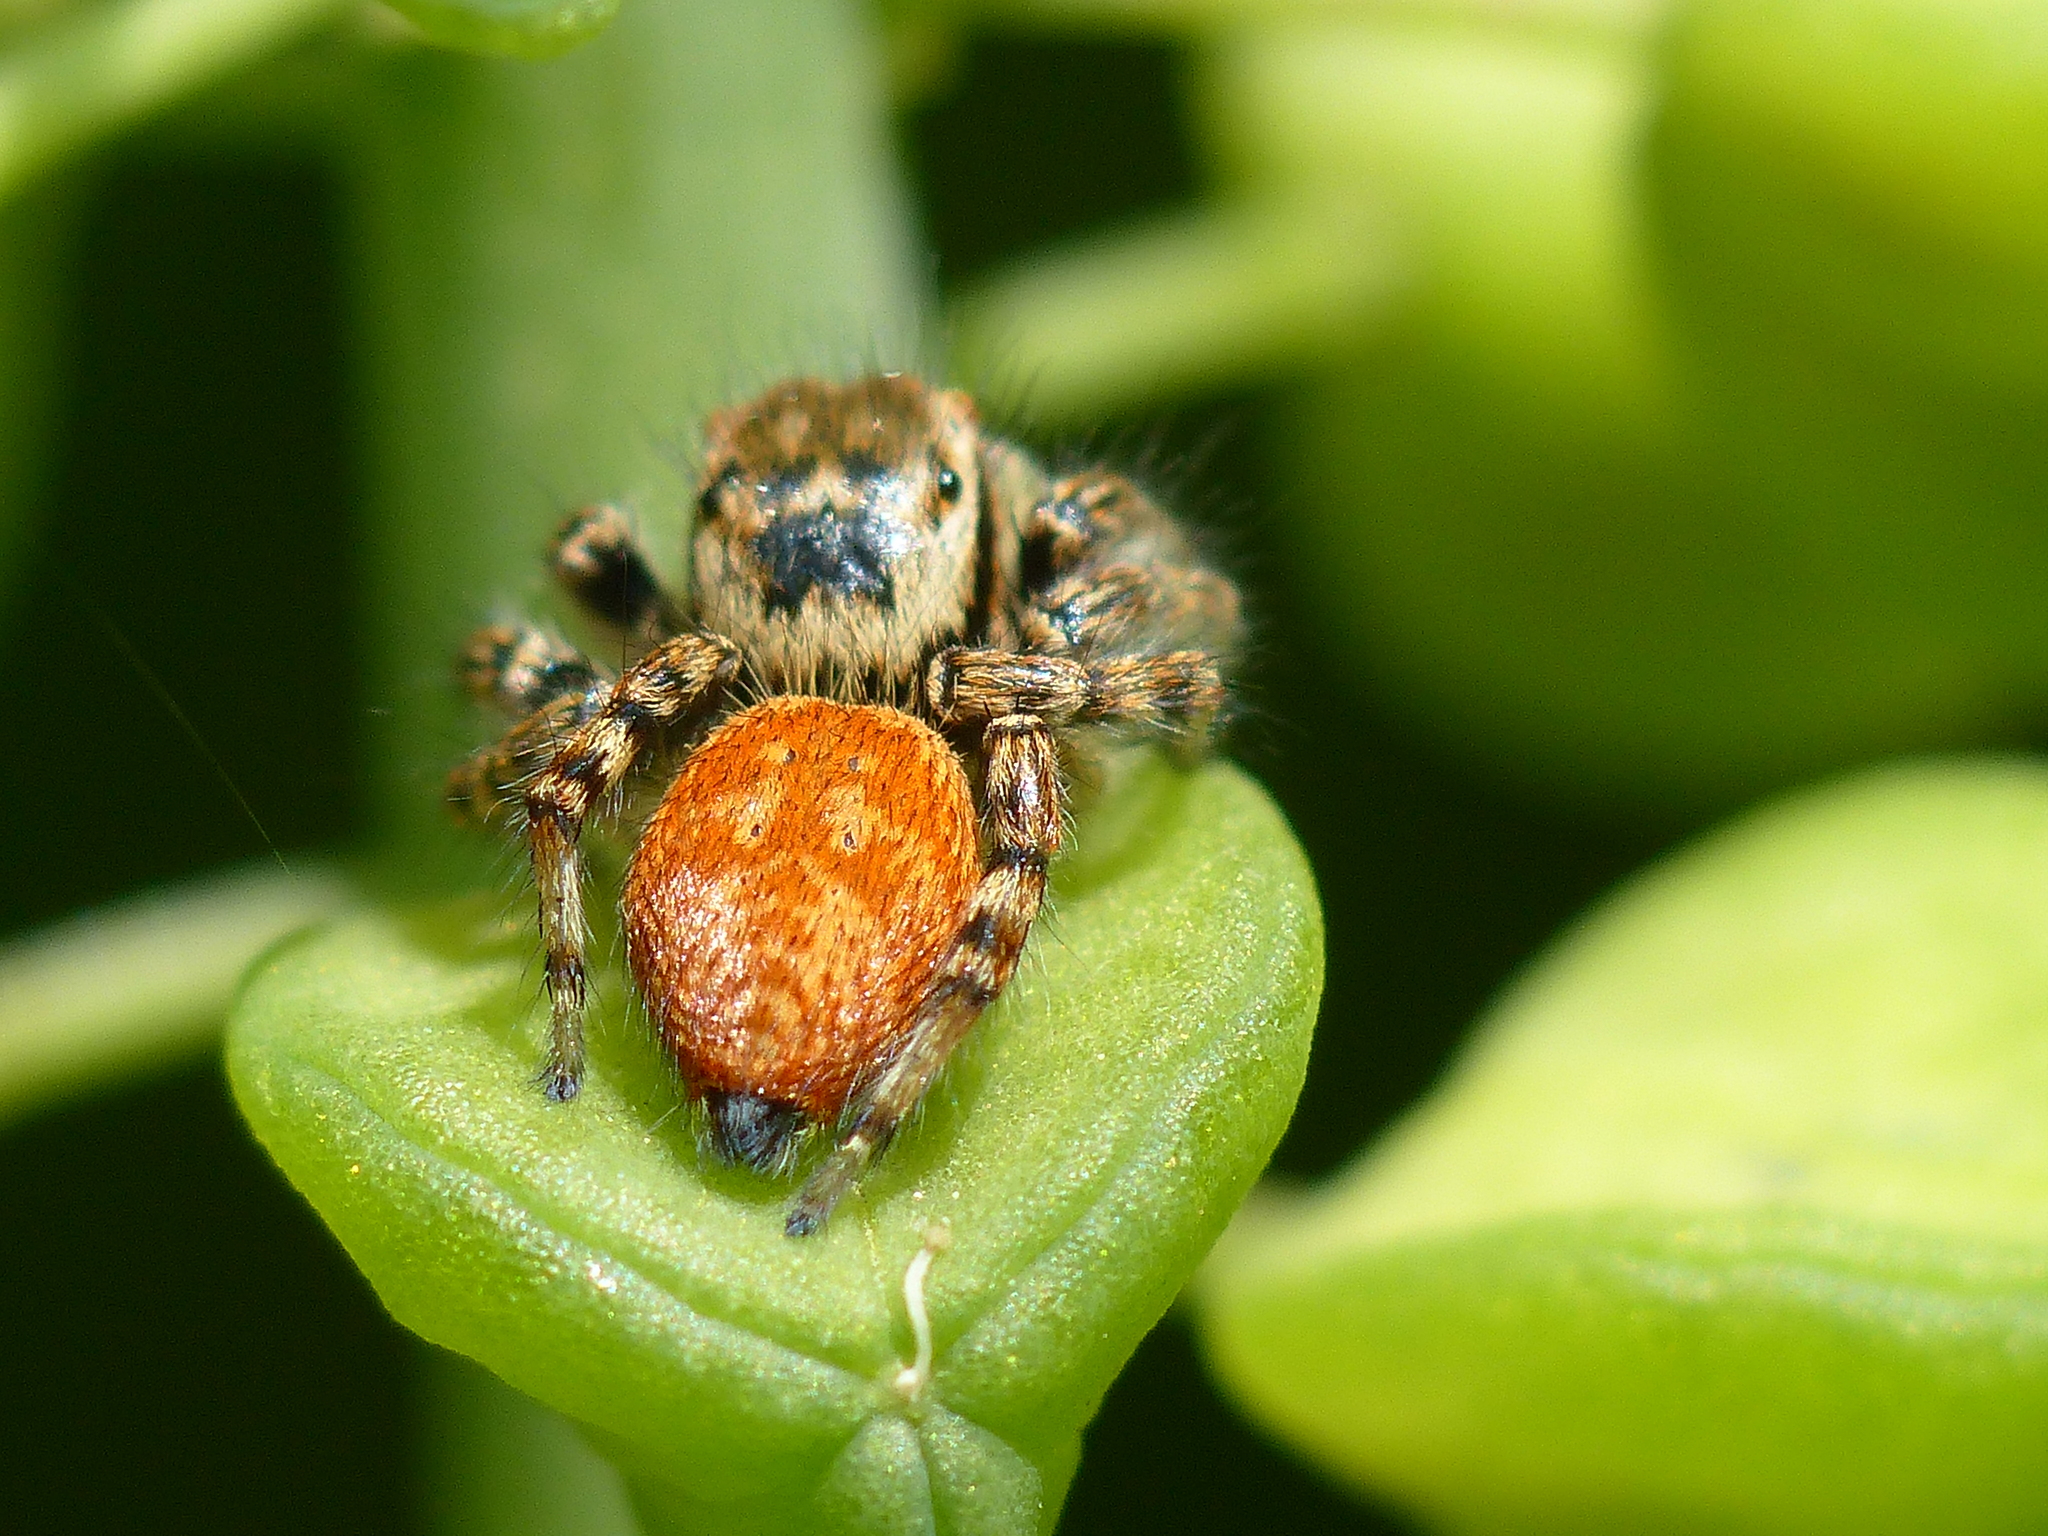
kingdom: Animalia
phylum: Arthropoda
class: Arachnida
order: Araneae
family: Salticidae
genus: Carrhotus
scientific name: Carrhotus xanthogramma
